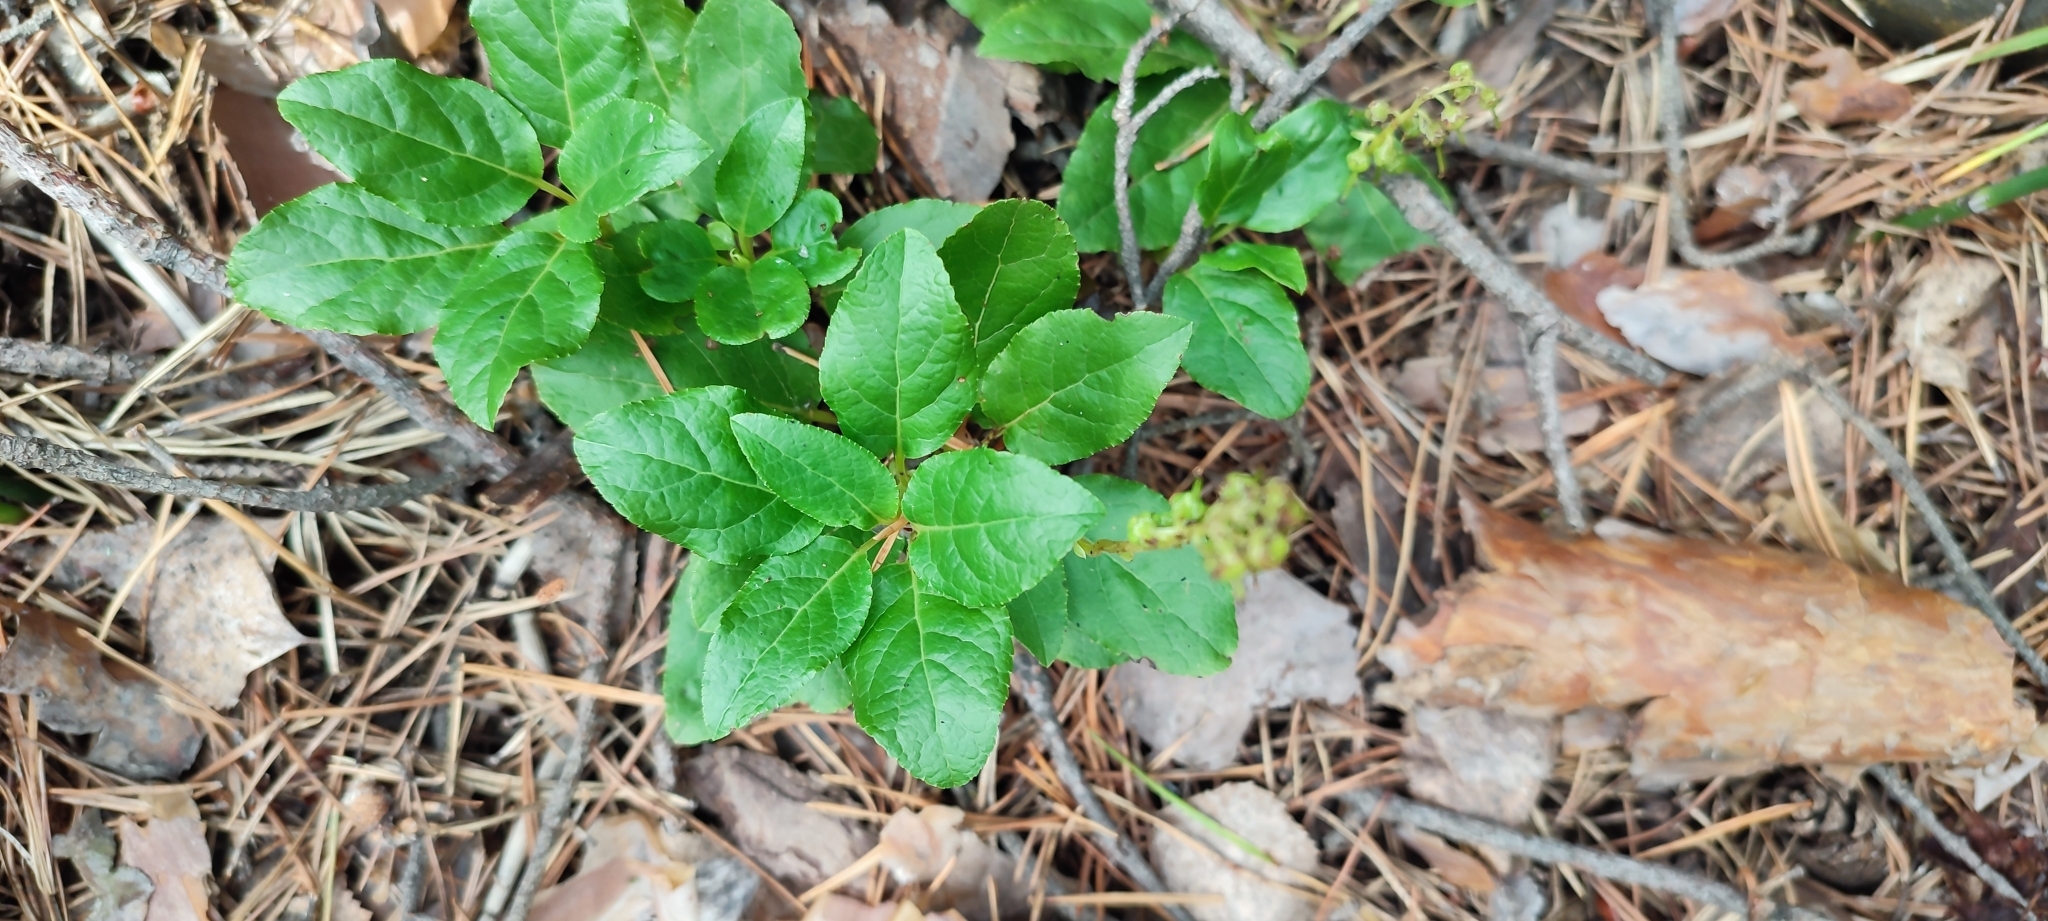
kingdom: Plantae
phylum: Tracheophyta
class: Magnoliopsida
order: Ericales
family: Ericaceae
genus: Orthilia
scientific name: Orthilia secunda
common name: One-sided orthilia
